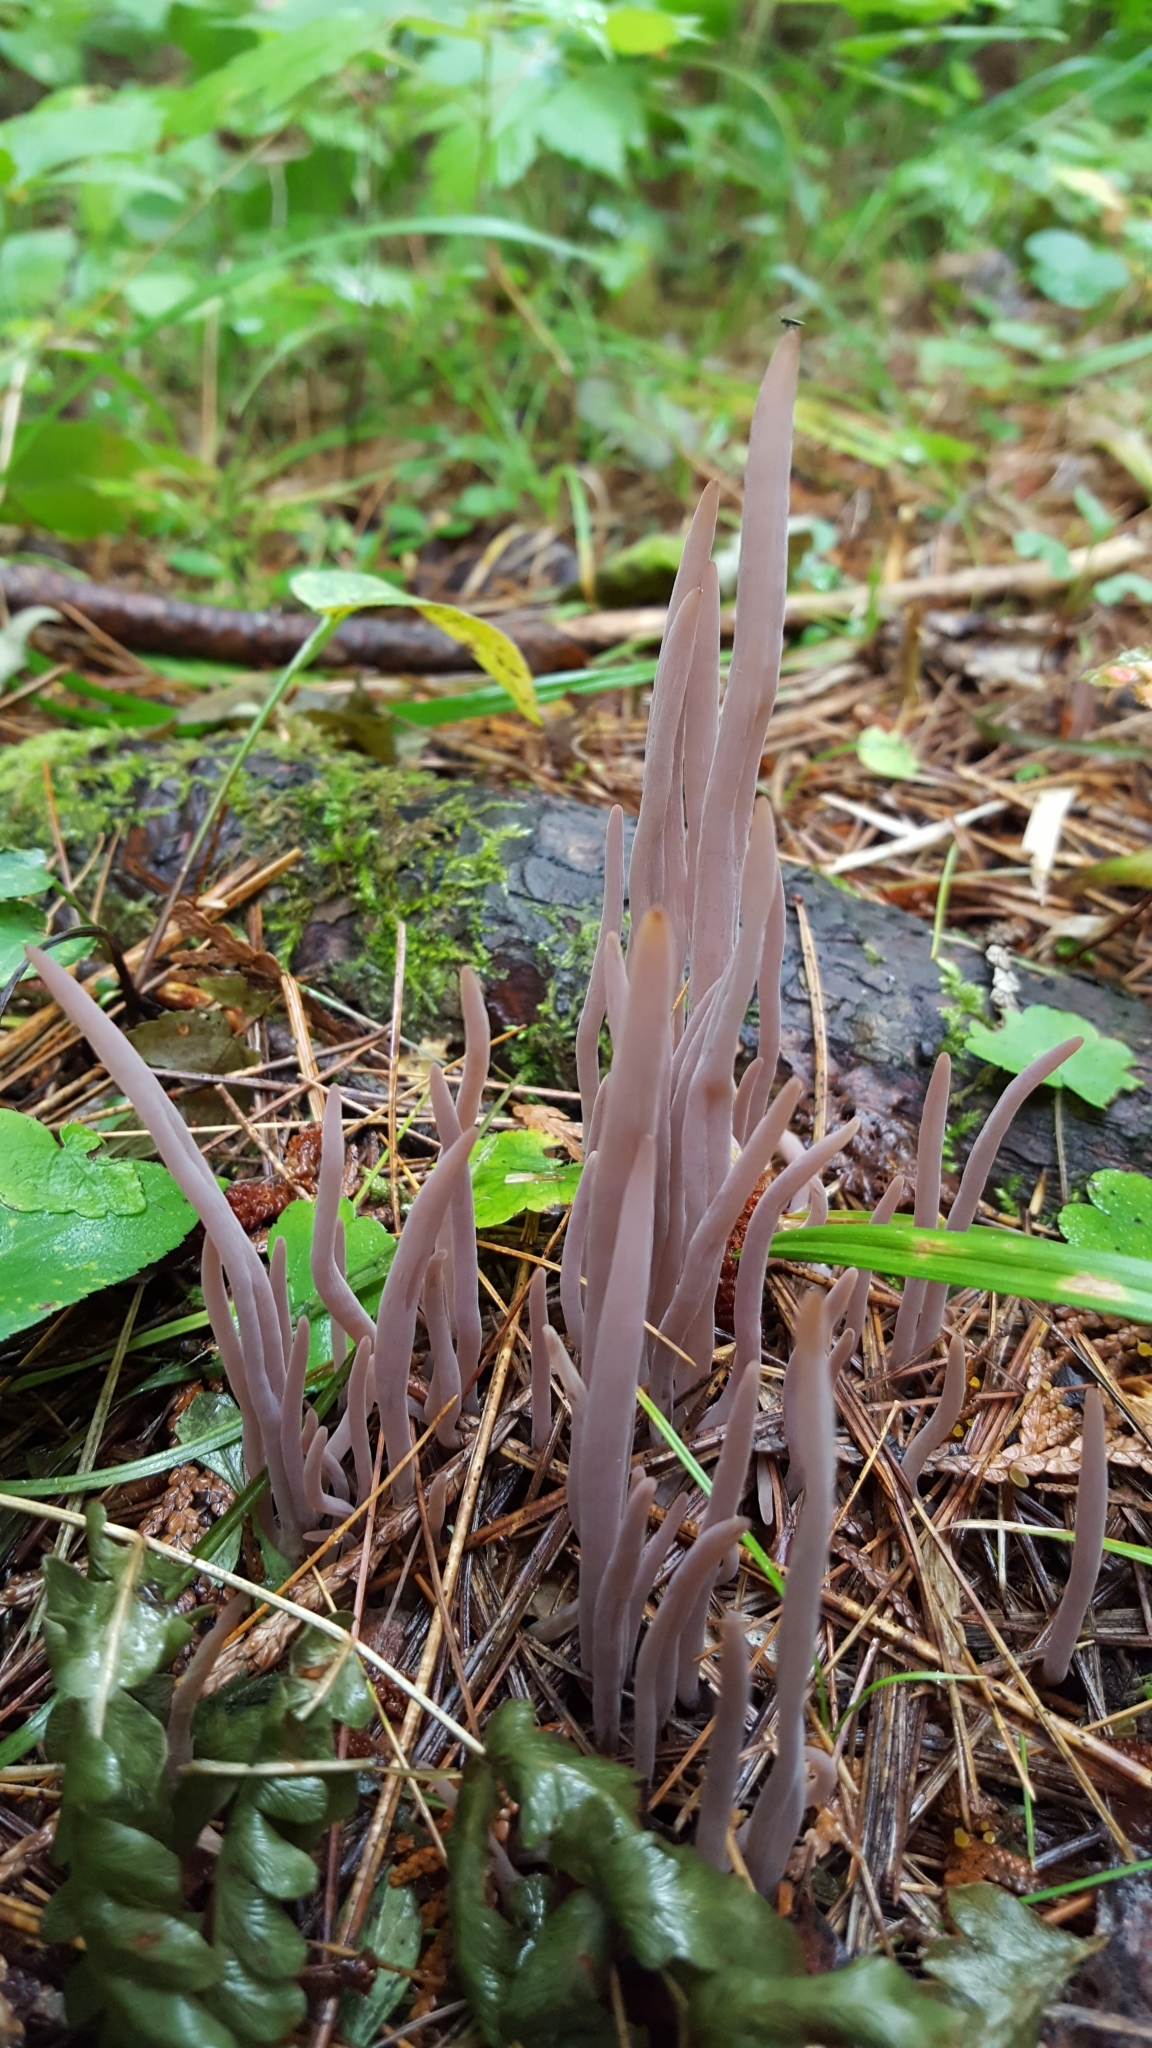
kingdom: Fungi
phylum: Basidiomycota
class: Agaricomycetes
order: Hymenochaetales
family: Rickenellaceae
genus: Alloclavaria
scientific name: Alloclavaria purpurea
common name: Purple spindles
